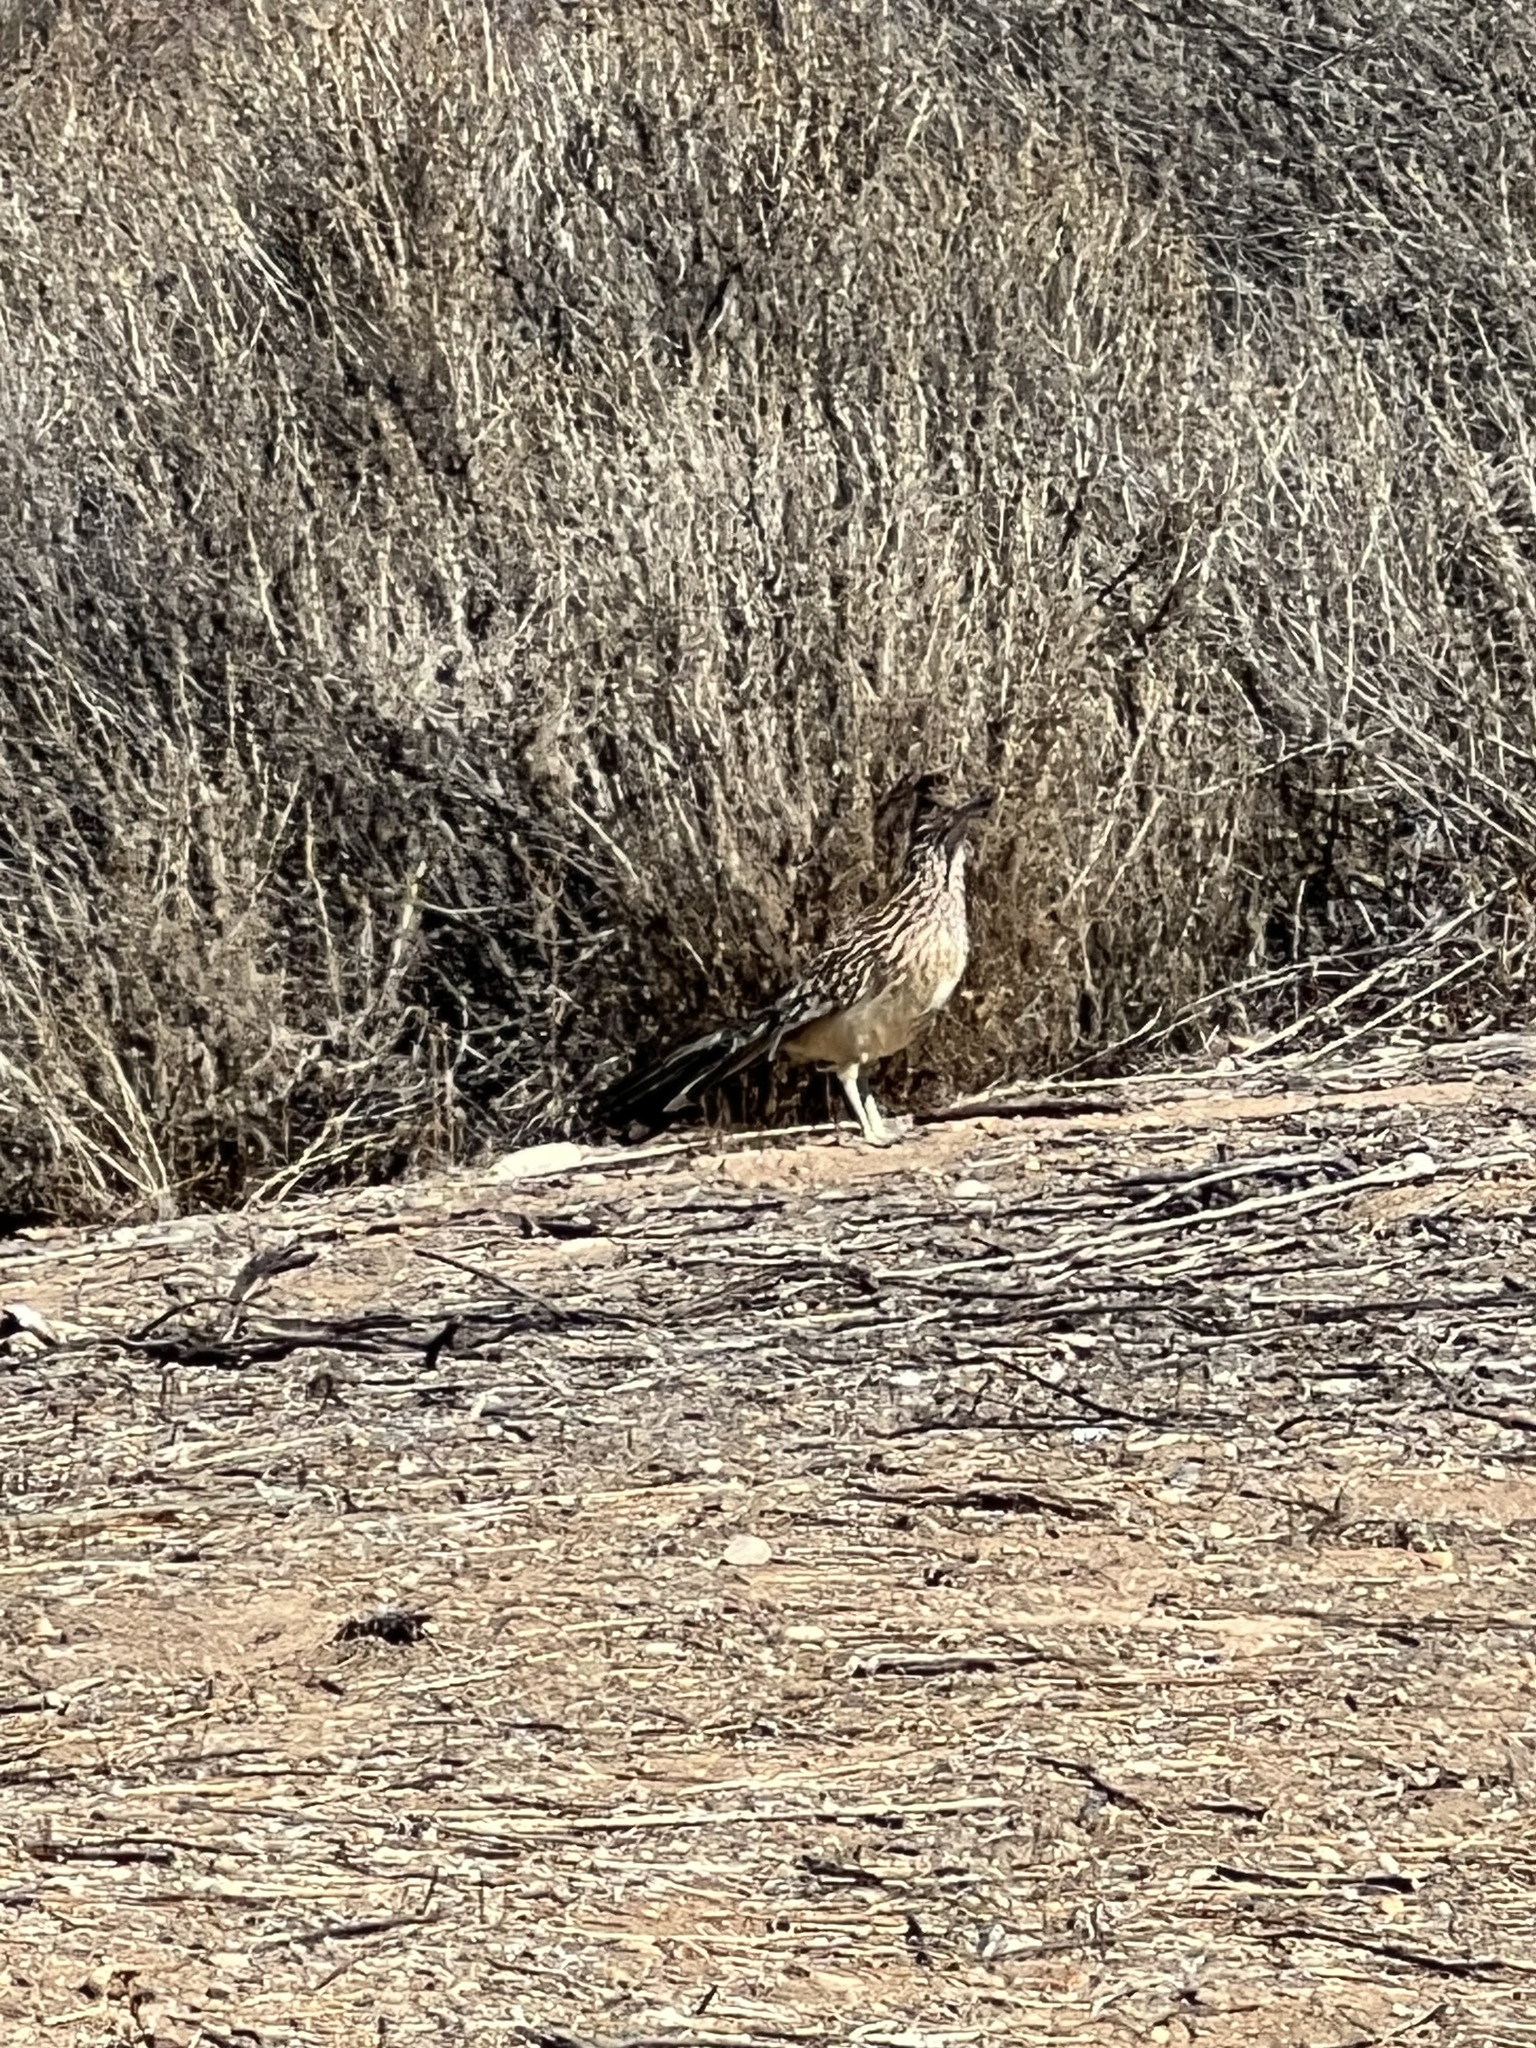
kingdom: Animalia
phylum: Chordata
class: Aves
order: Cuculiformes
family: Cuculidae
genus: Geococcyx
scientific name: Geococcyx californianus
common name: Greater roadrunner
